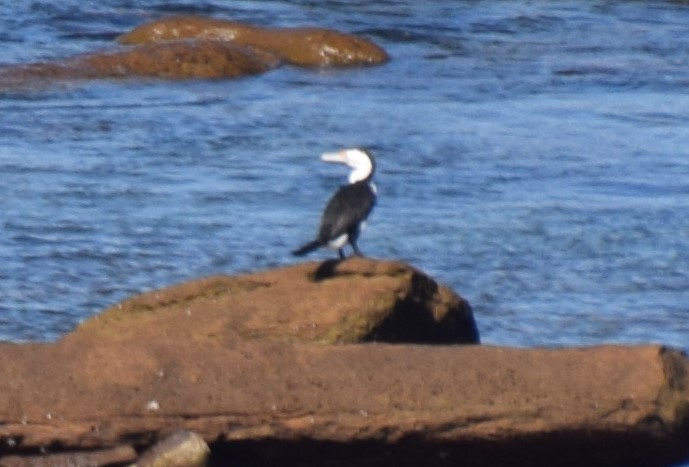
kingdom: Animalia
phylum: Chordata
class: Aves
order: Suliformes
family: Phalacrocoracidae
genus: Phalacrocorax
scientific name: Phalacrocorax varius
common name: Pied cormorant
